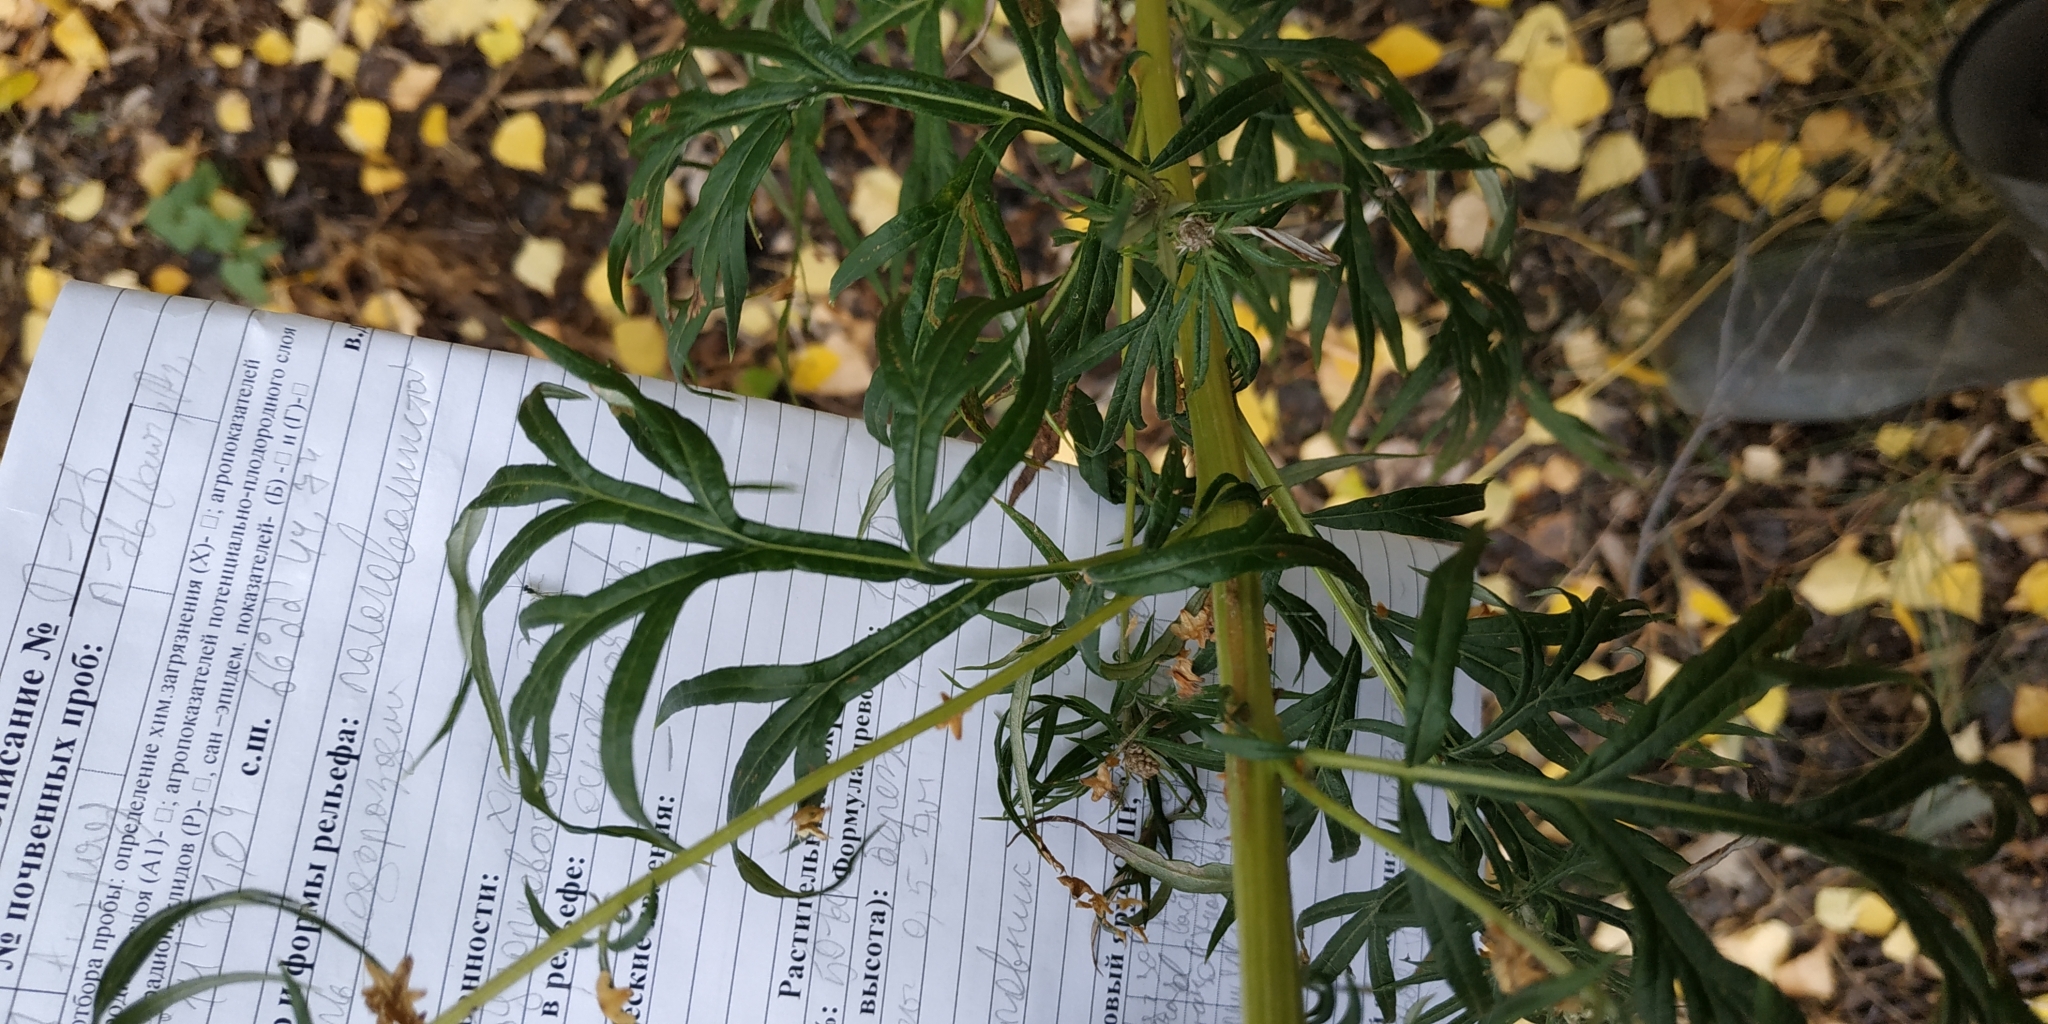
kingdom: Plantae
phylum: Tracheophyta
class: Magnoliopsida
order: Asterales
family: Asteraceae
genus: Artemisia
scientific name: Artemisia vulgaris
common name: Mugwort
